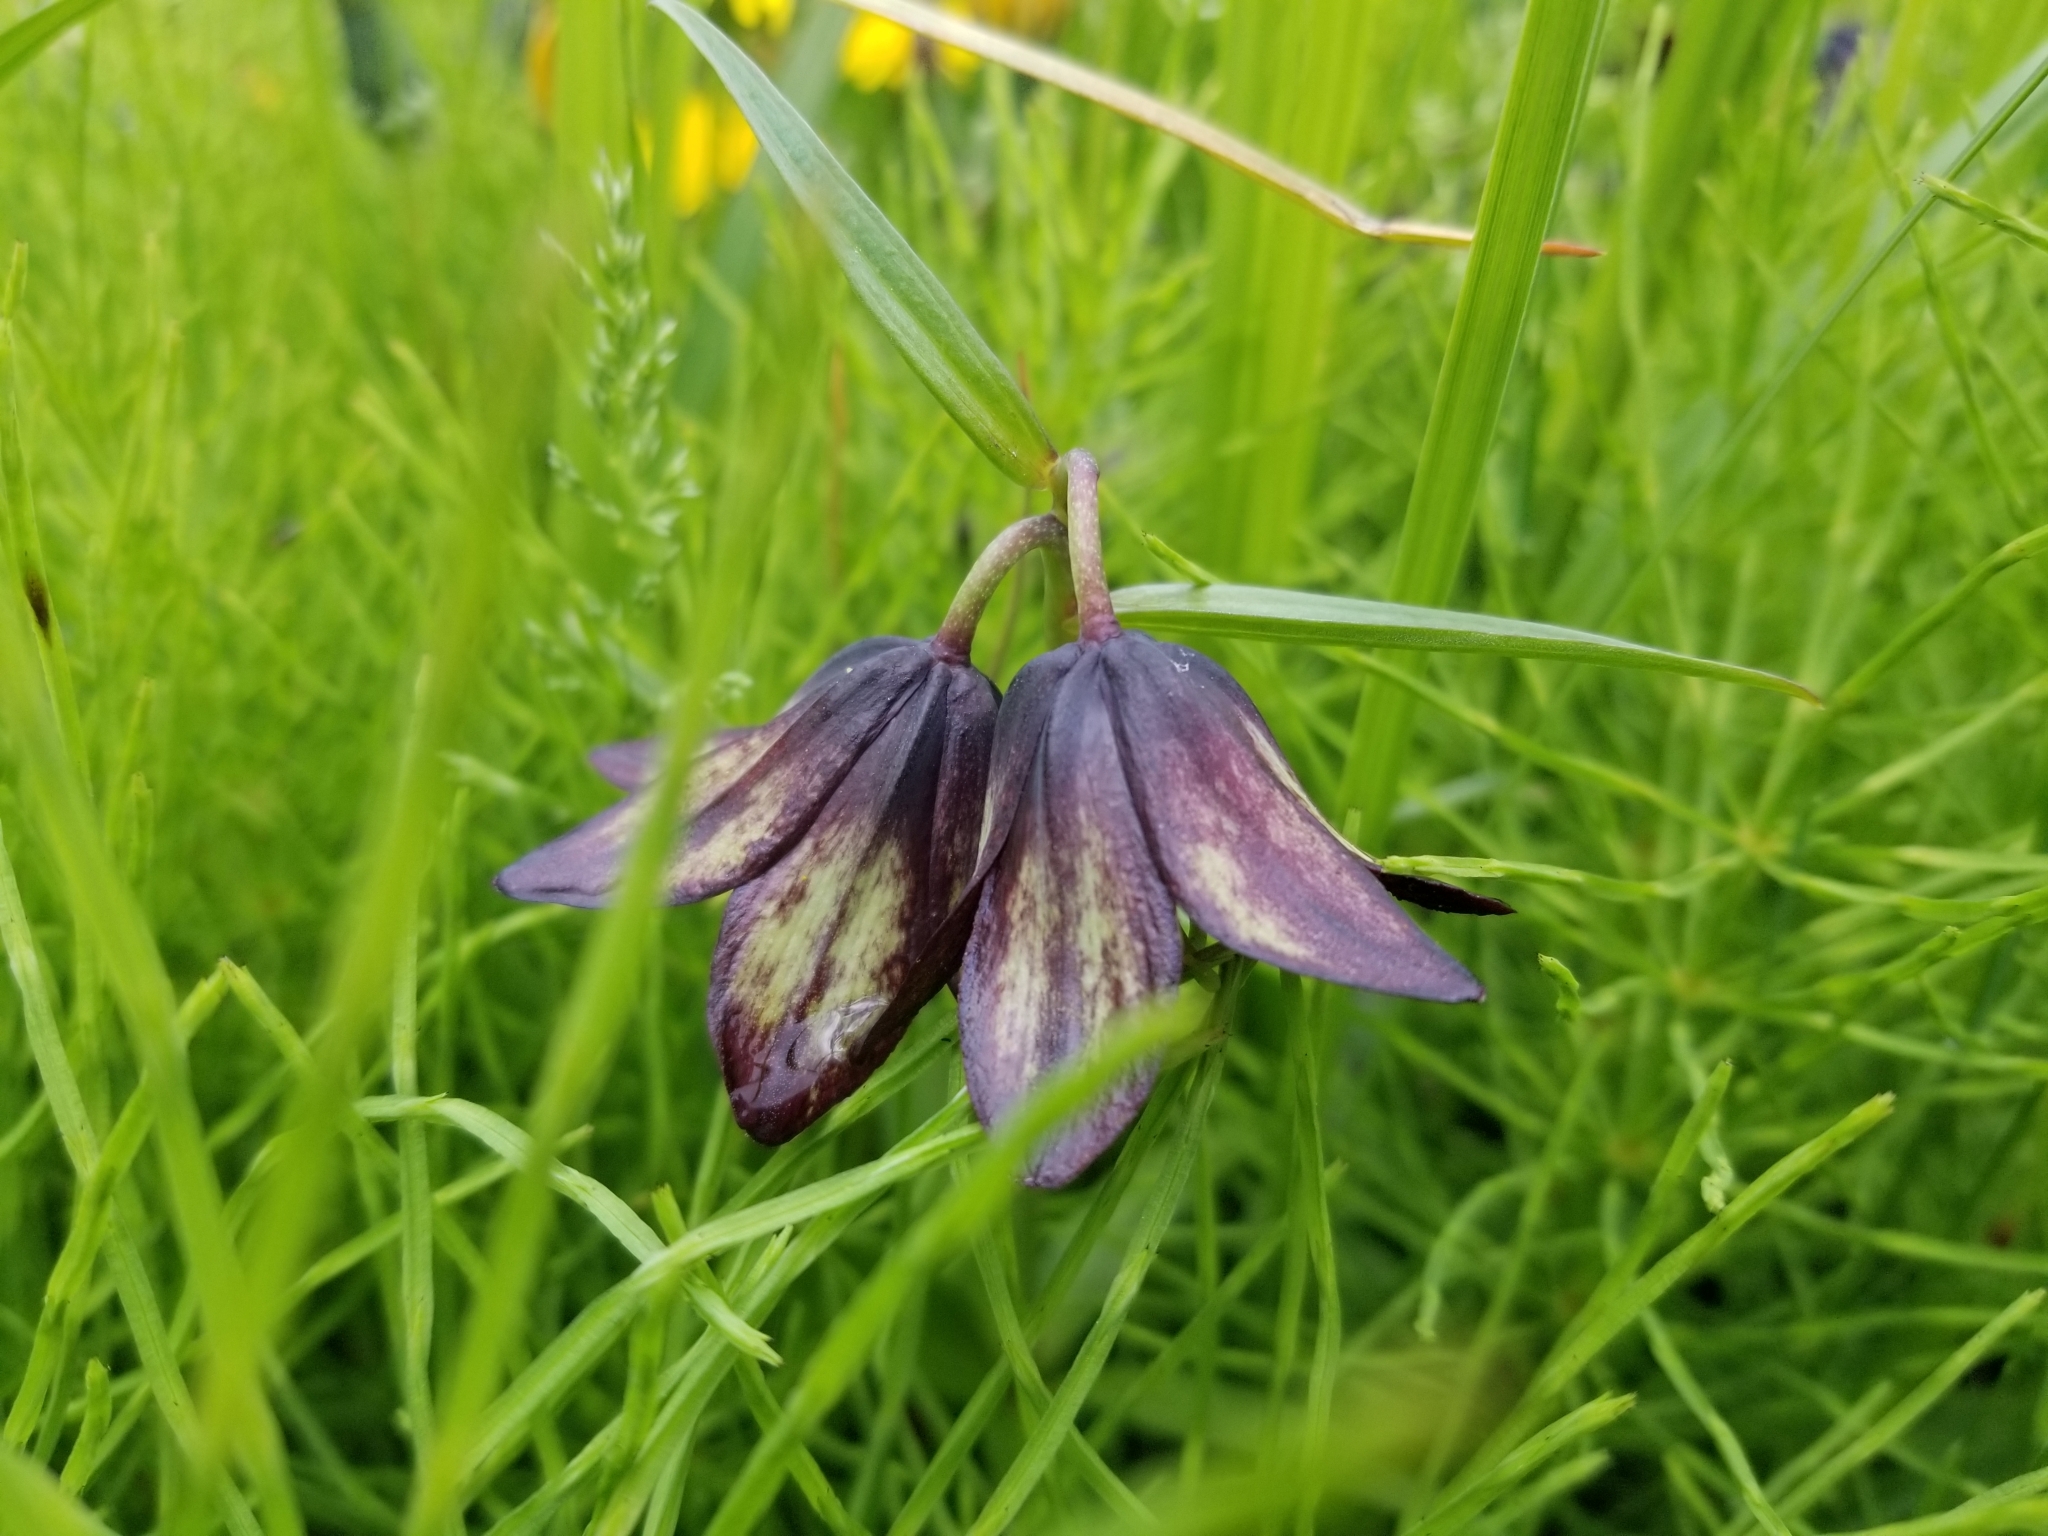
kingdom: Plantae
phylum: Tracheophyta
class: Liliopsida
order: Liliales
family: Liliaceae
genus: Fritillaria
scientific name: Fritillaria camschatcensis
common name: Kamchatka fritillary
